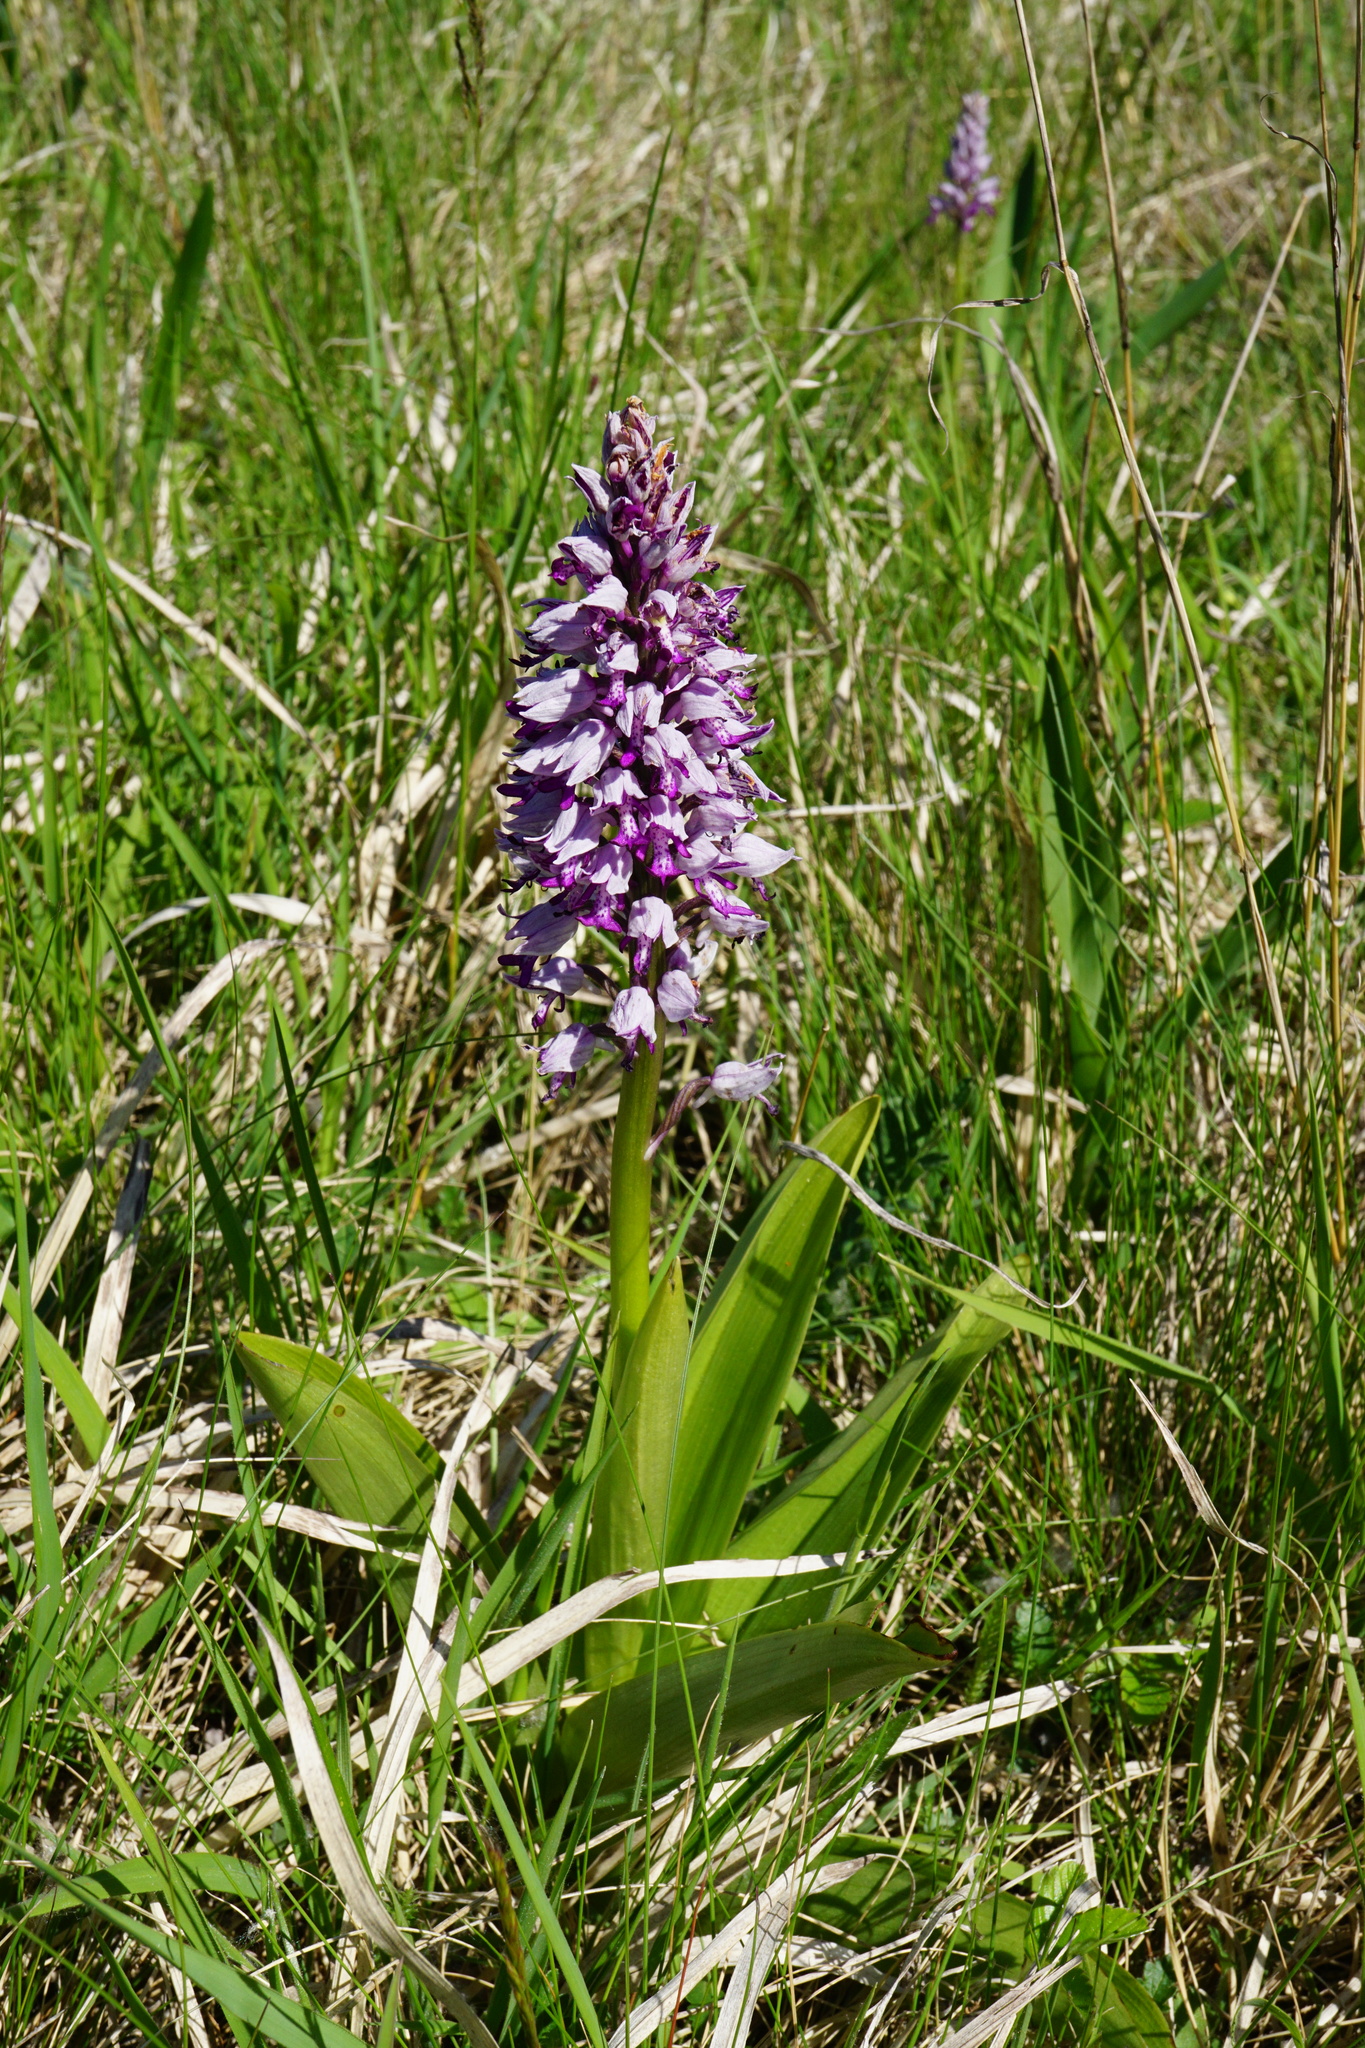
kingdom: Plantae
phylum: Tracheophyta
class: Liliopsida
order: Asparagales
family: Orchidaceae
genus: Orchis
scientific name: Orchis militaris
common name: Military orchid
